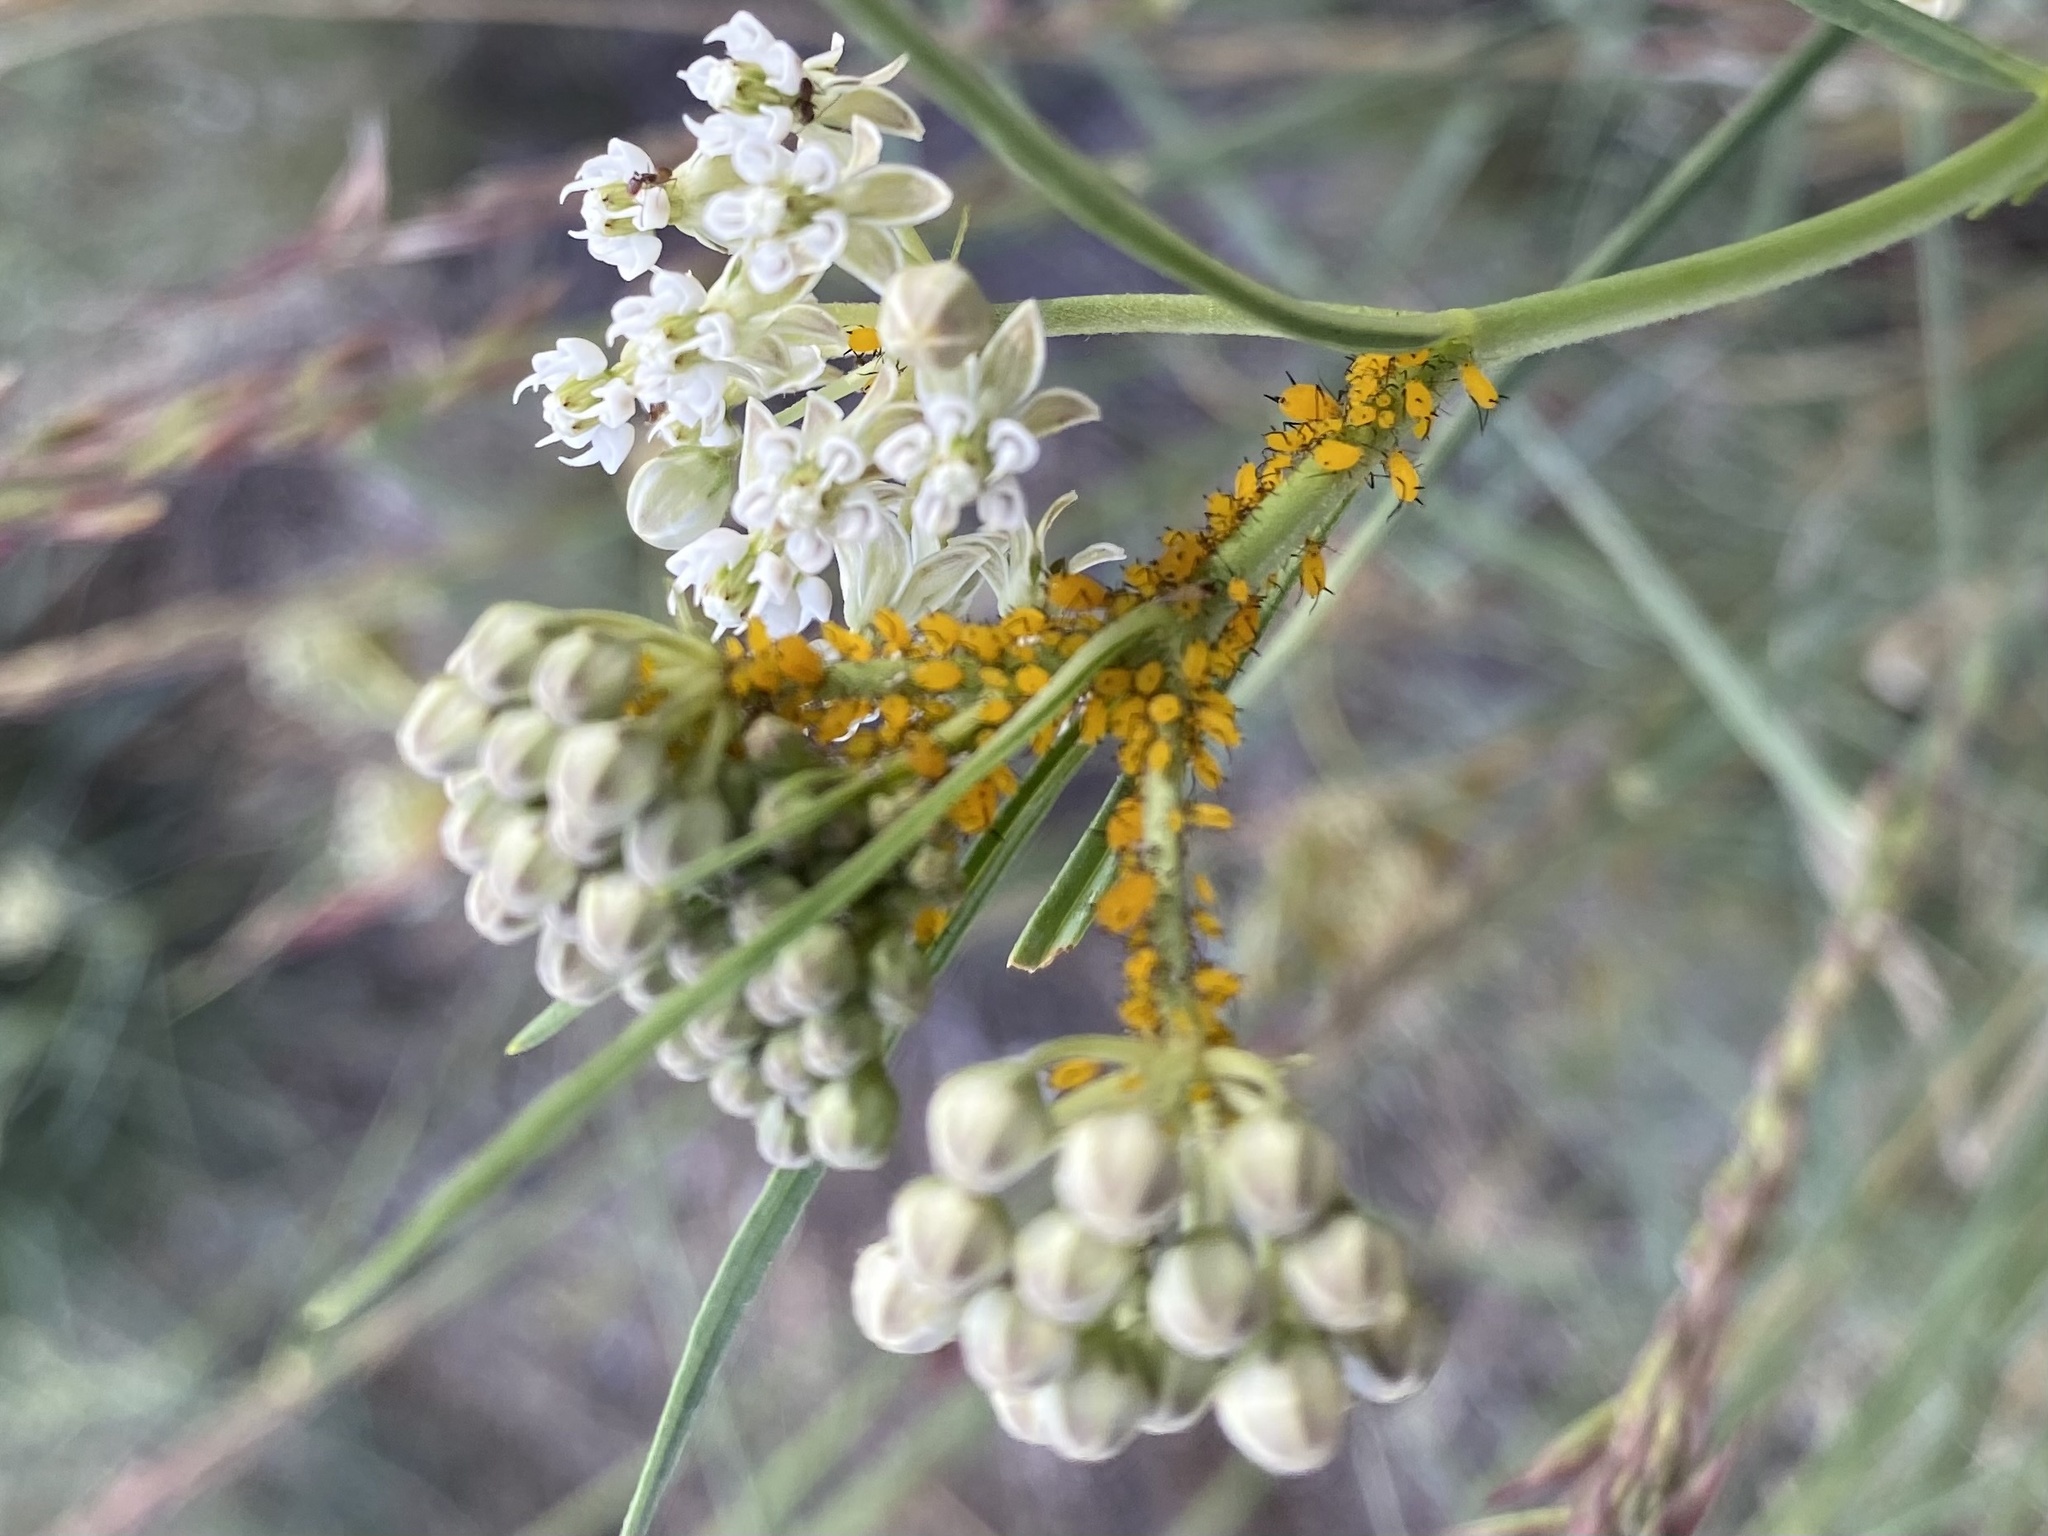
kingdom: Animalia
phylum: Arthropoda
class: Insecta
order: Hemiptera
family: Aphididae
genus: Aphis
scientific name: Aphis nerii
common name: Oleander aphid
